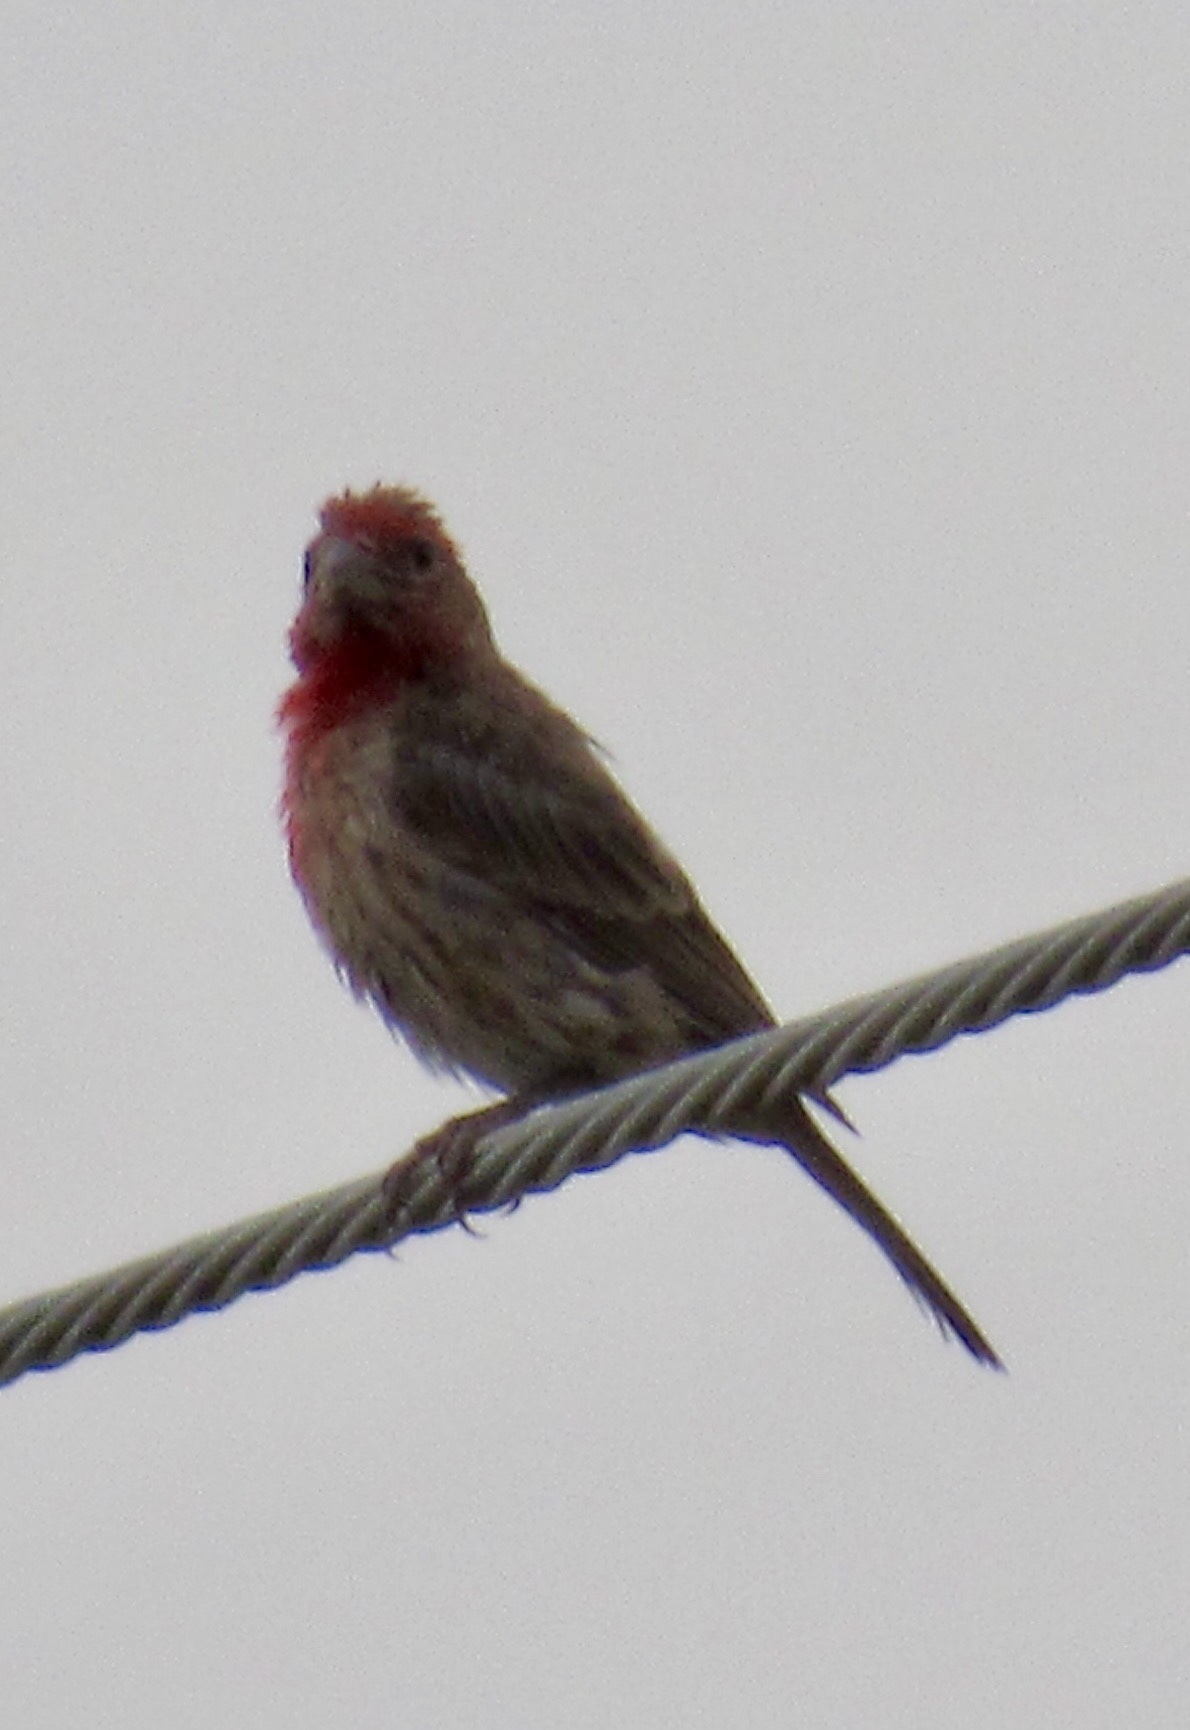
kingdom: Animalia
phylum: Chordata
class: Aves
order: Passeriformes
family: Fringillidae
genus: Haemorhous
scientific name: Haemorhous mexicanus
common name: House finch
